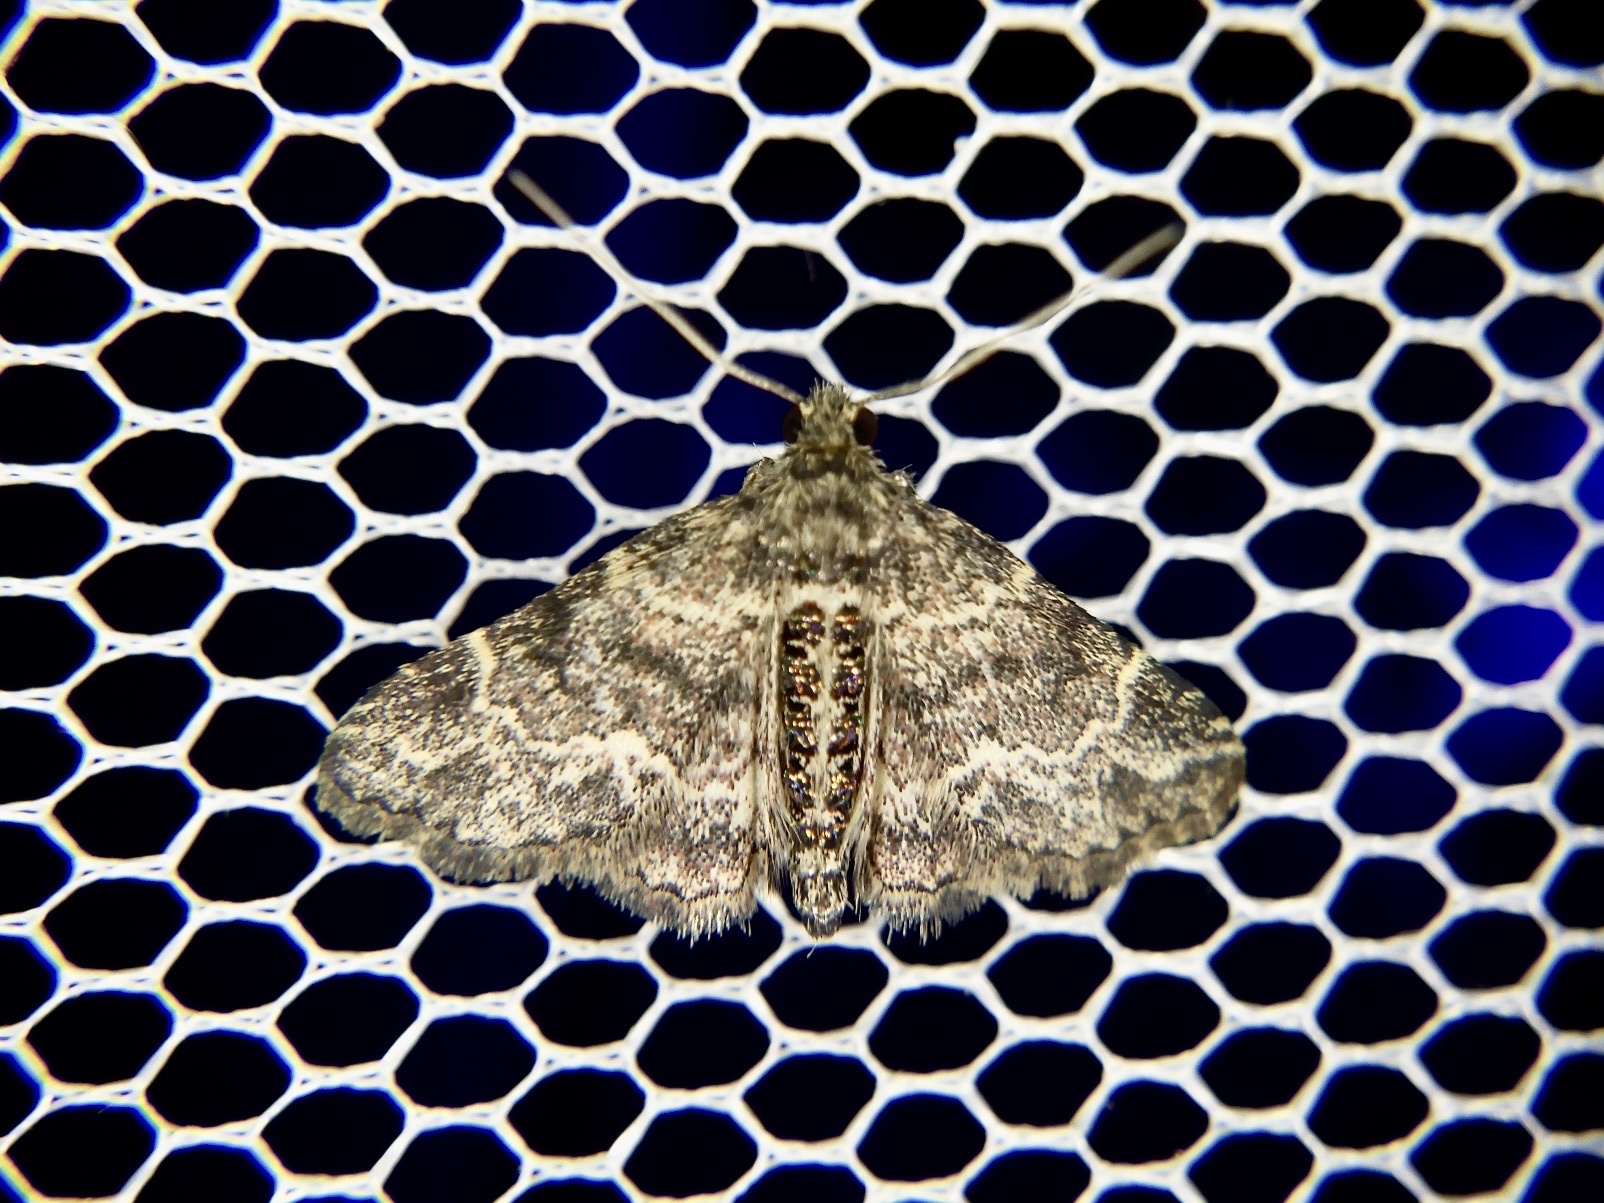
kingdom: Animalia
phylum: Arthropoda
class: Insecta
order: Lepidoptera
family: Erebidae
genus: Paragona
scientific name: Paragona inchoata
